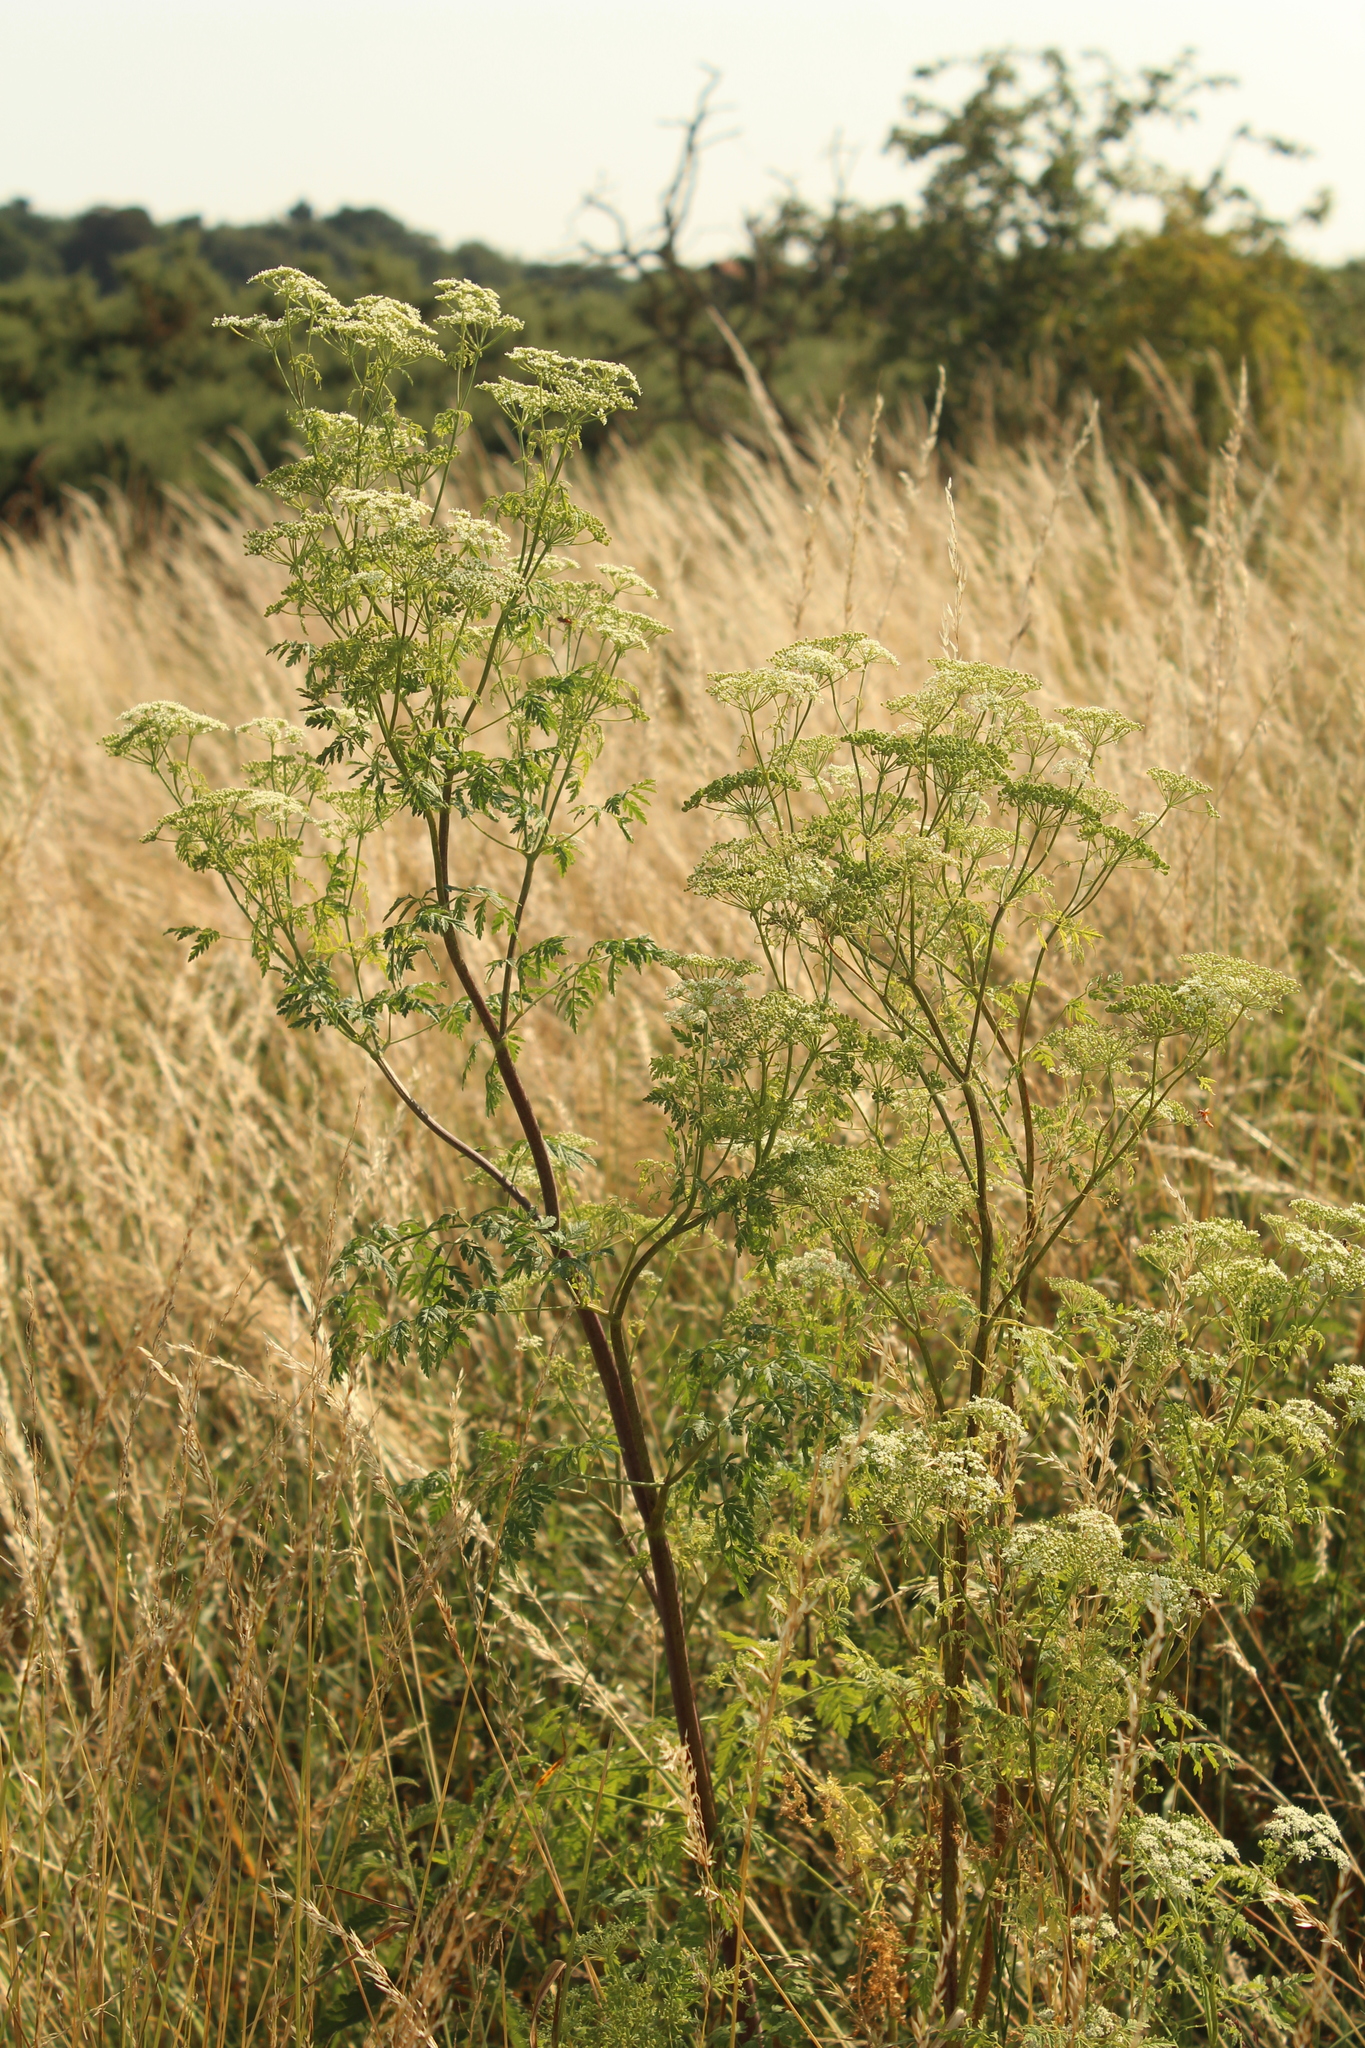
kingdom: Plantae
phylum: Tracheophyta
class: Magnoliopsida
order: Apiales
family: Apiaceae
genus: Conium
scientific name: Conium maculatum
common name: Hemlock
